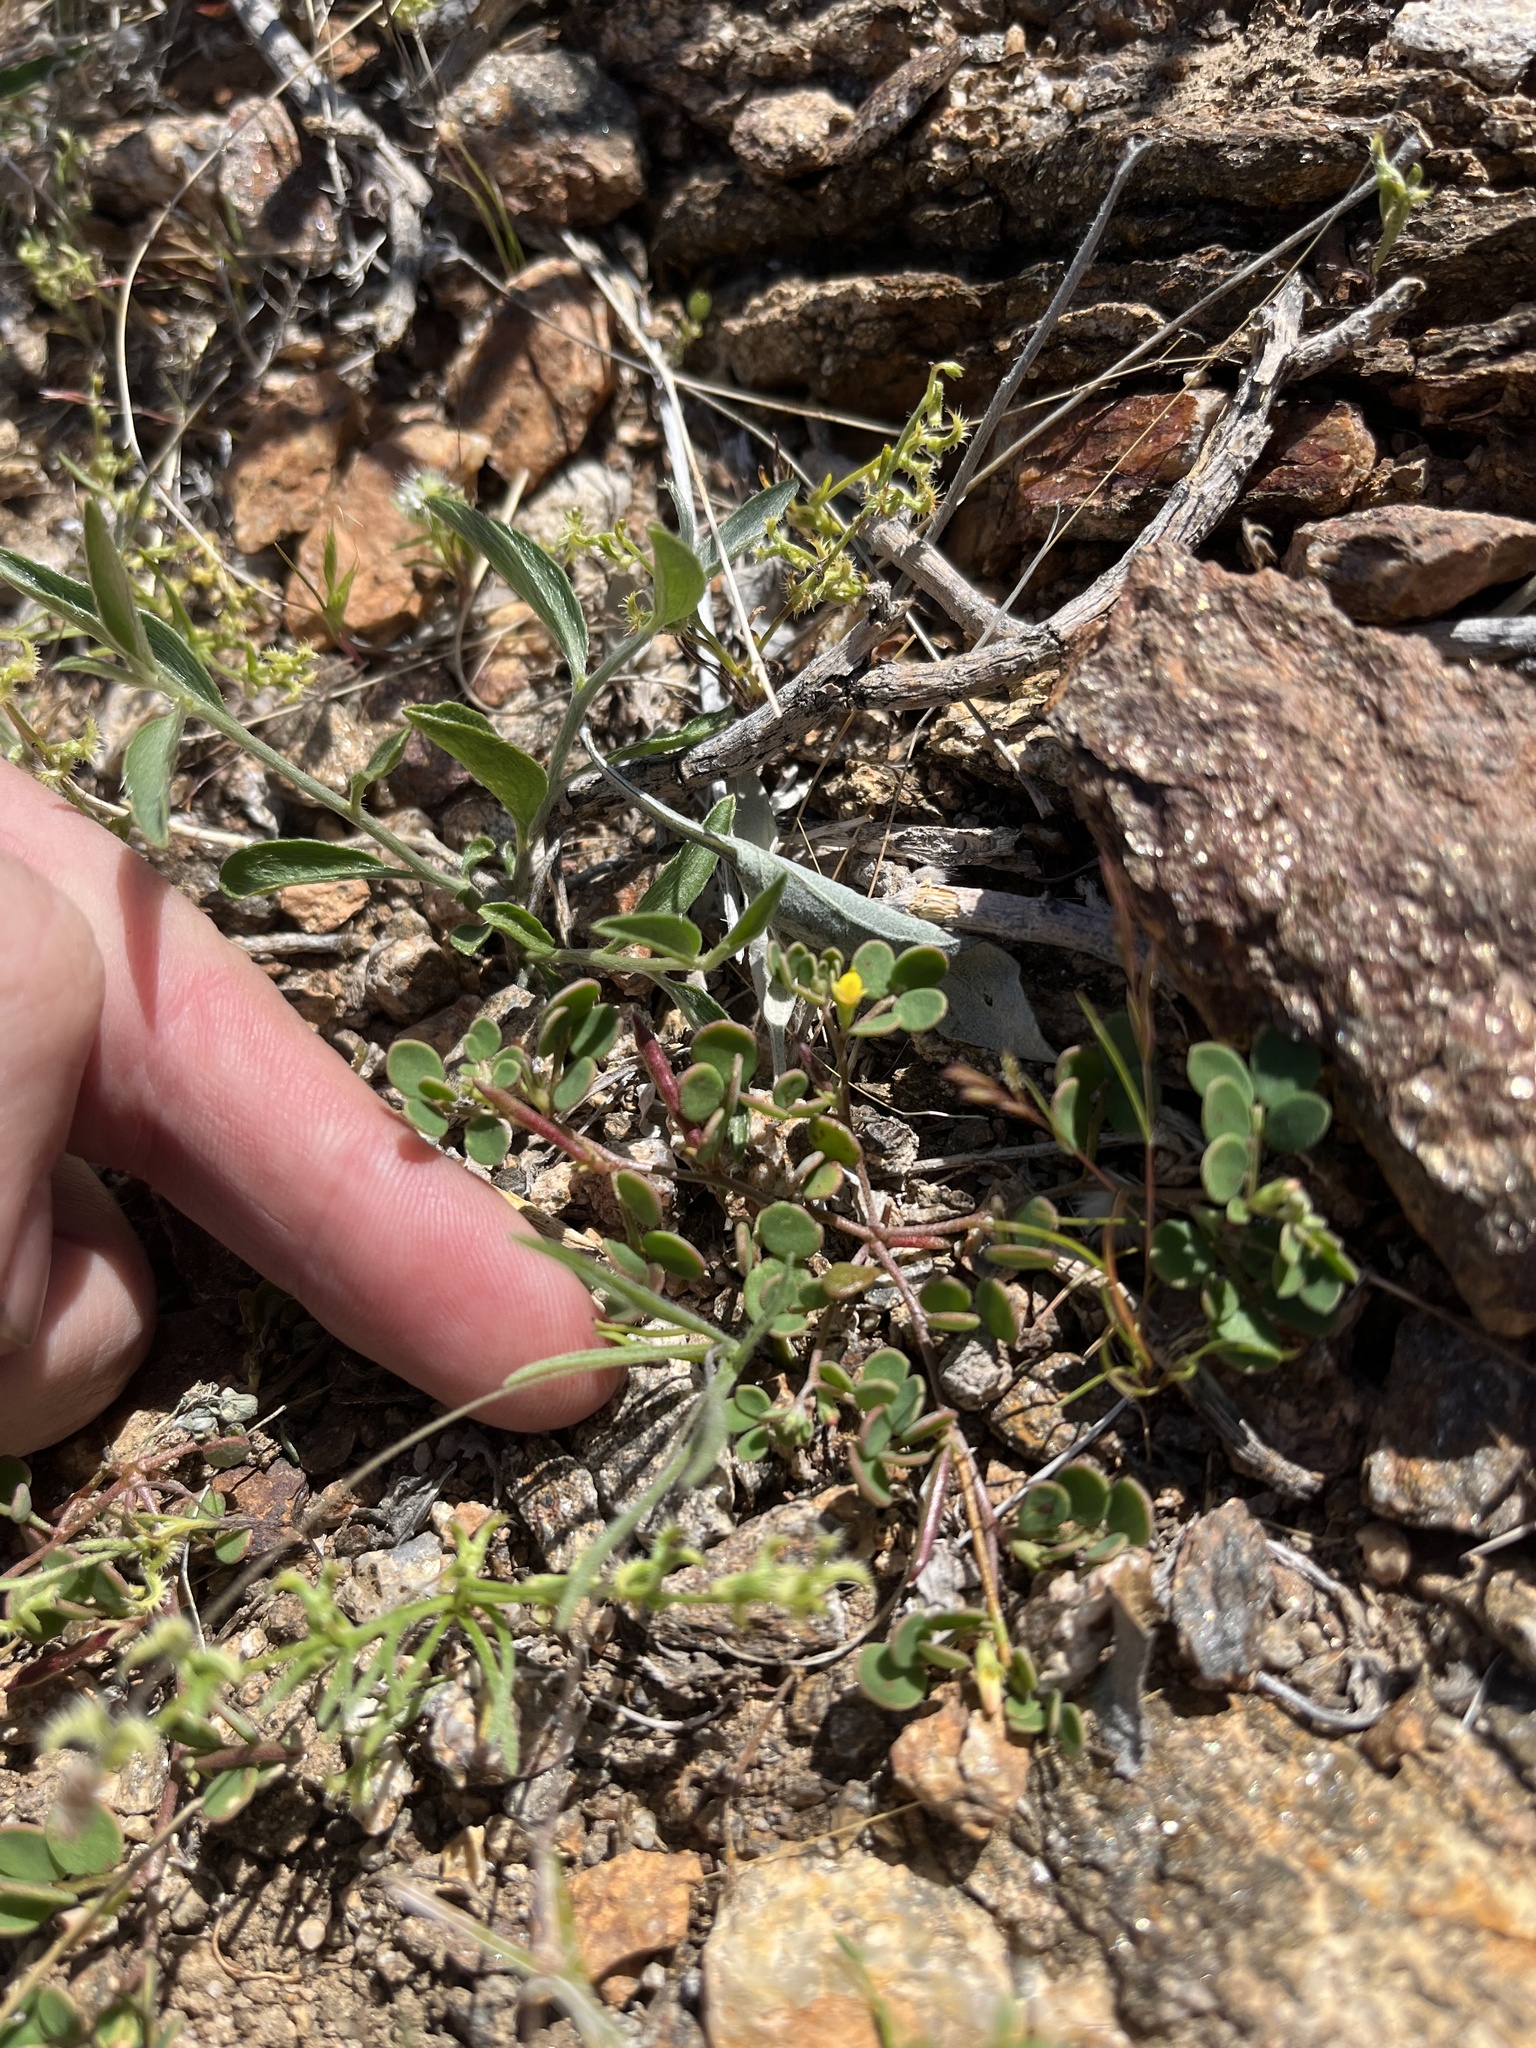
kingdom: Plantae
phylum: Tracheophyta
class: Magnoliopsida
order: Fabales
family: Fabaceae
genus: Acmispon
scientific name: Acmispon maritimus
